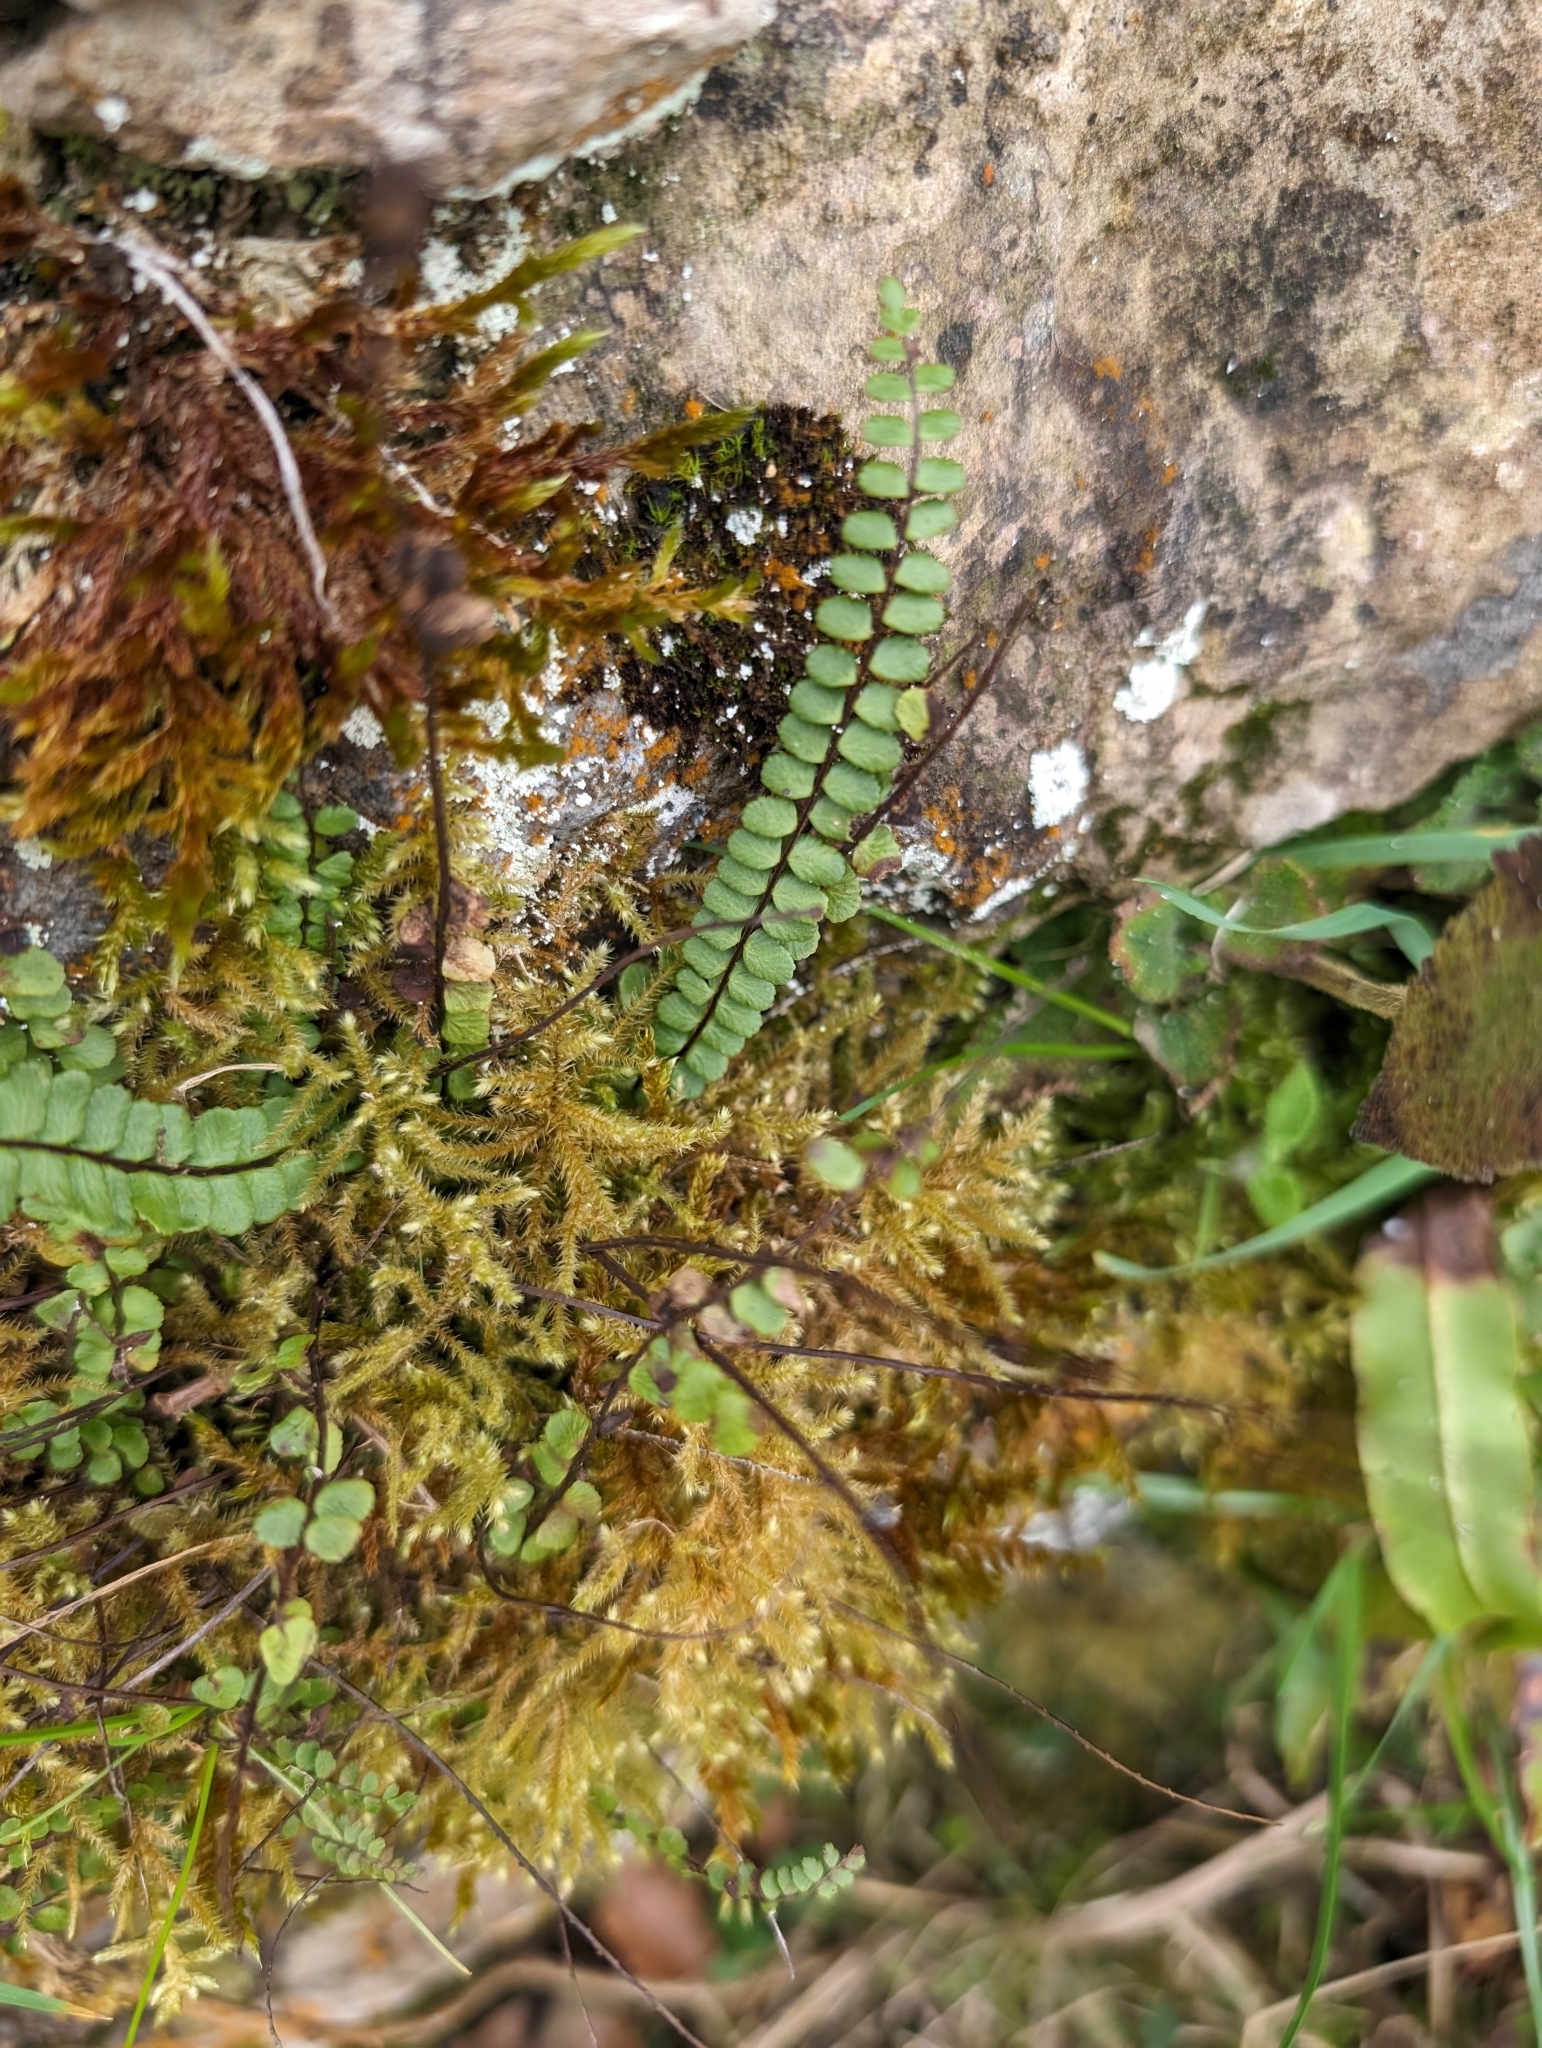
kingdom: Plantae
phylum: Tracheophyta
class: Polypodiopsida
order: Polypodiales
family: Aspleniaceae
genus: Asplenium
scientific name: Asplenium trichomanes
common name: Maidenhair spleenwort
